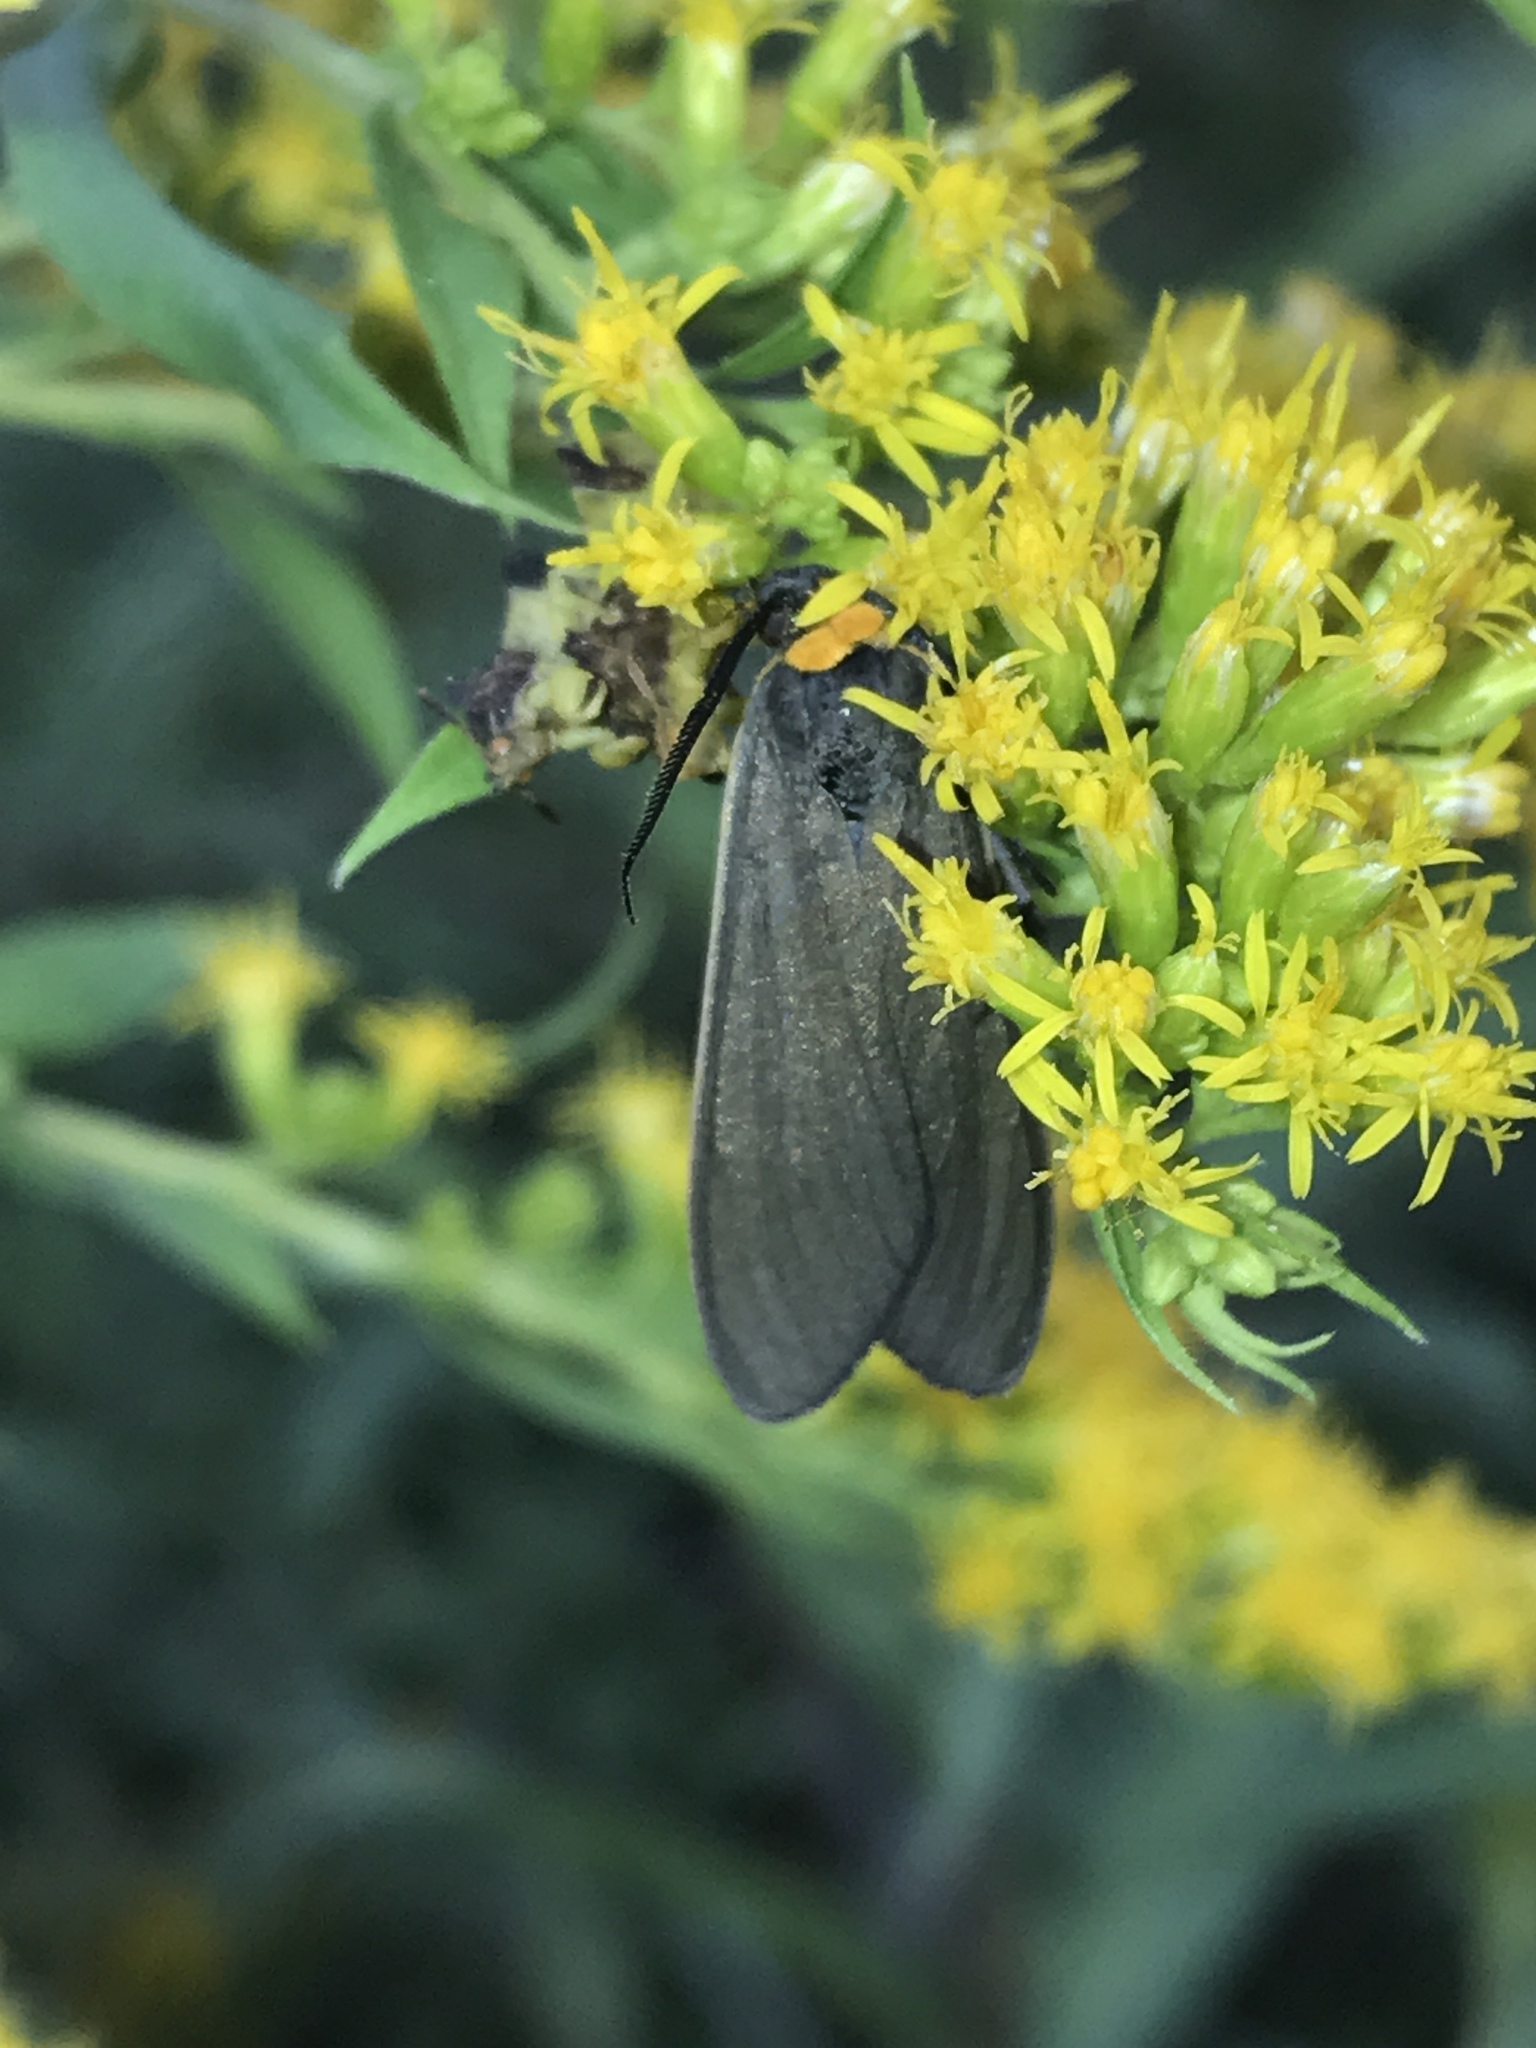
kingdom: Animalia
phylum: Arthropoda
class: Insecta
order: Lepidoptera
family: Erebidae
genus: Cisseps
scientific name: Cisseps fulvicollis
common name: Yellow-collared scape moth
